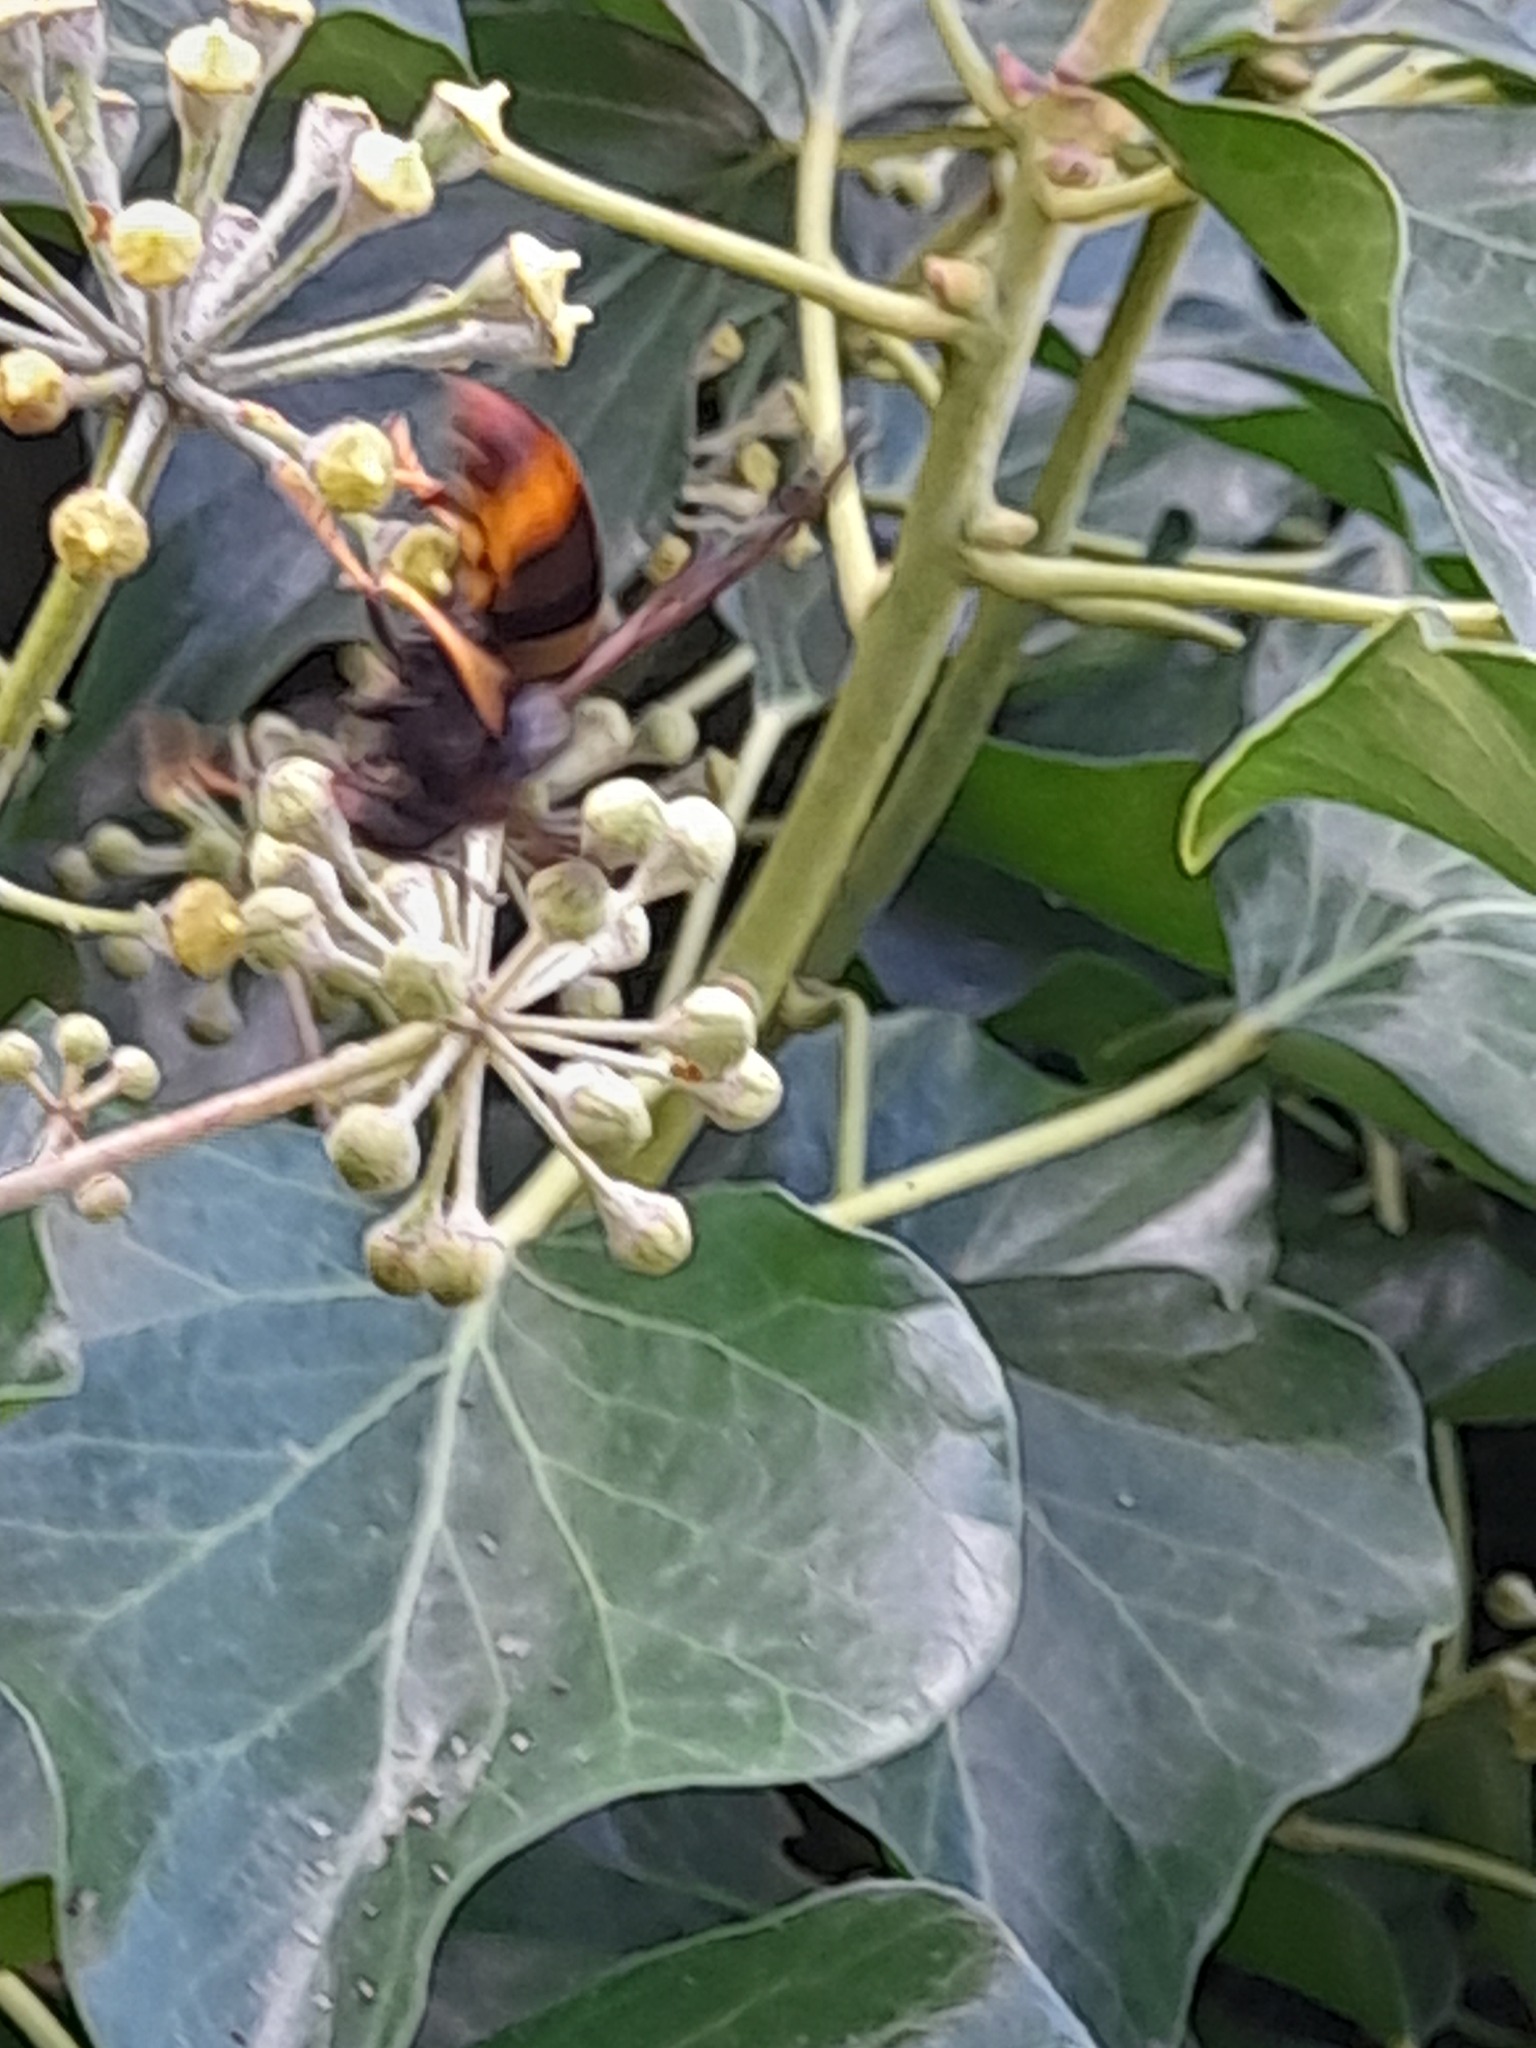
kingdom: Animalia
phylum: Arthropoda
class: Insecta
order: Hymenoptera
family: Vespidae
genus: Vespa
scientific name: Vespa velutina
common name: Asian hornet
